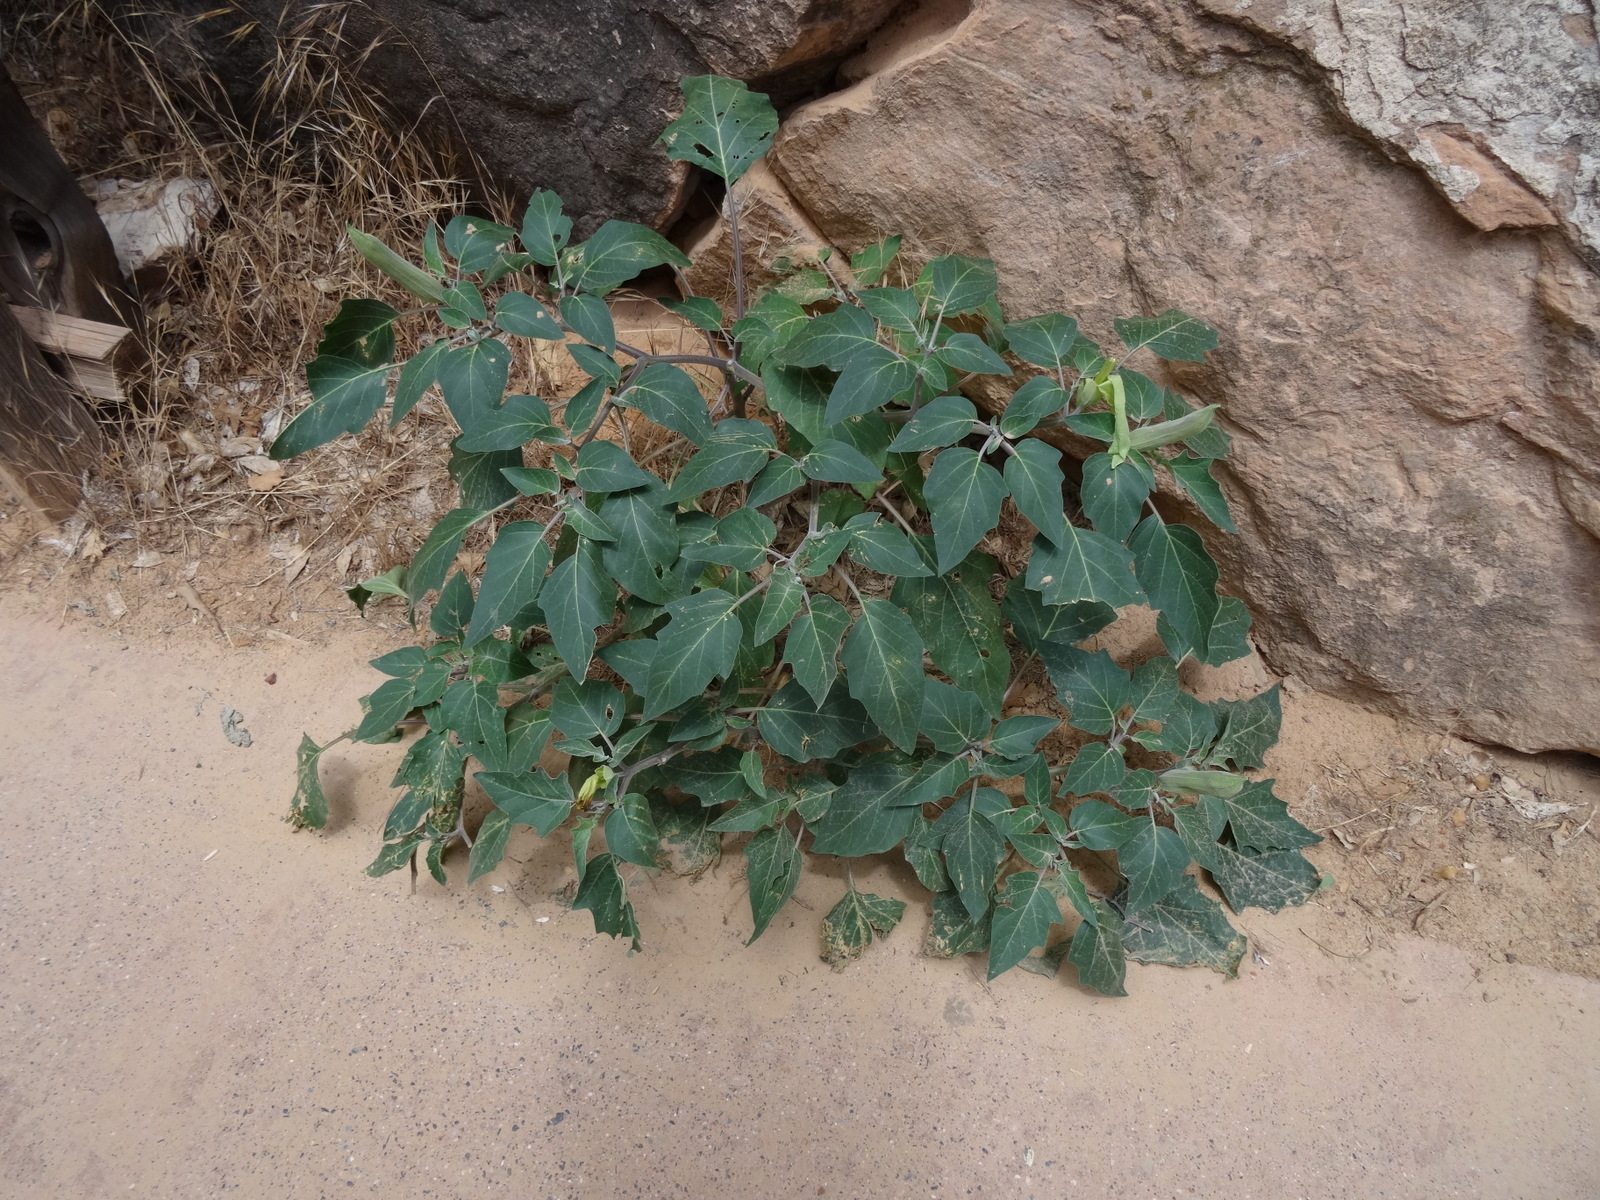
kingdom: Plantae
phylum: Tracheophyta
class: Magnoliopsida
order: Solanales
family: Solanaceae
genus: Datura
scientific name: Datura wrightii
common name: Sacred thorn-apple
